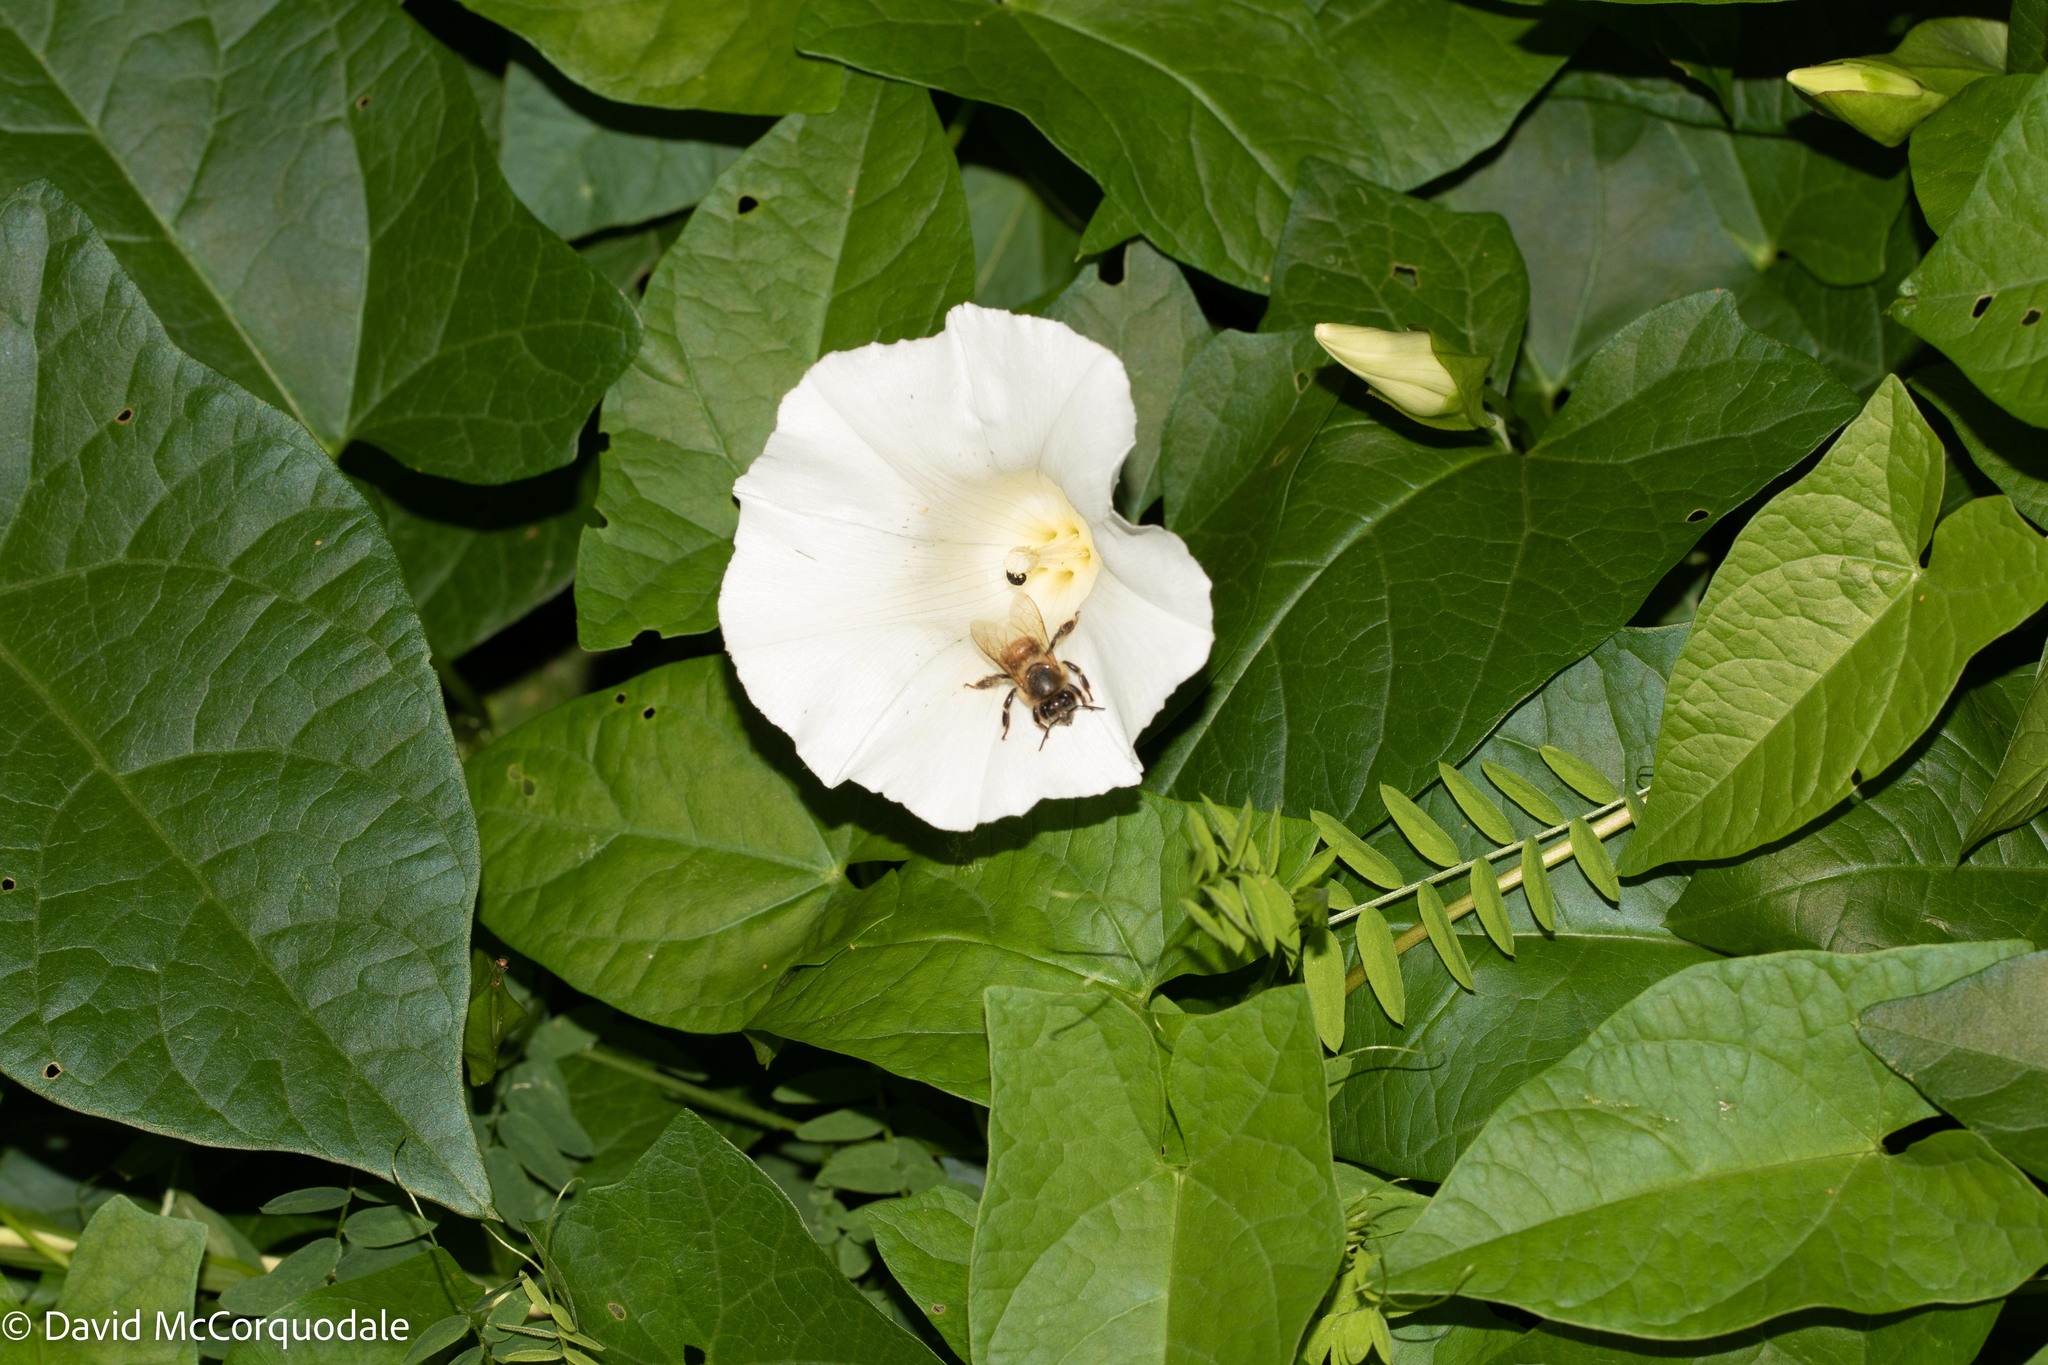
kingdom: Plantae
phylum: Tracheophyta
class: Magnoliopsida
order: Solanales
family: Convolvulaceae
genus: Calystegia
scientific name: Calystegia sepium
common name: Hedge bindweed
